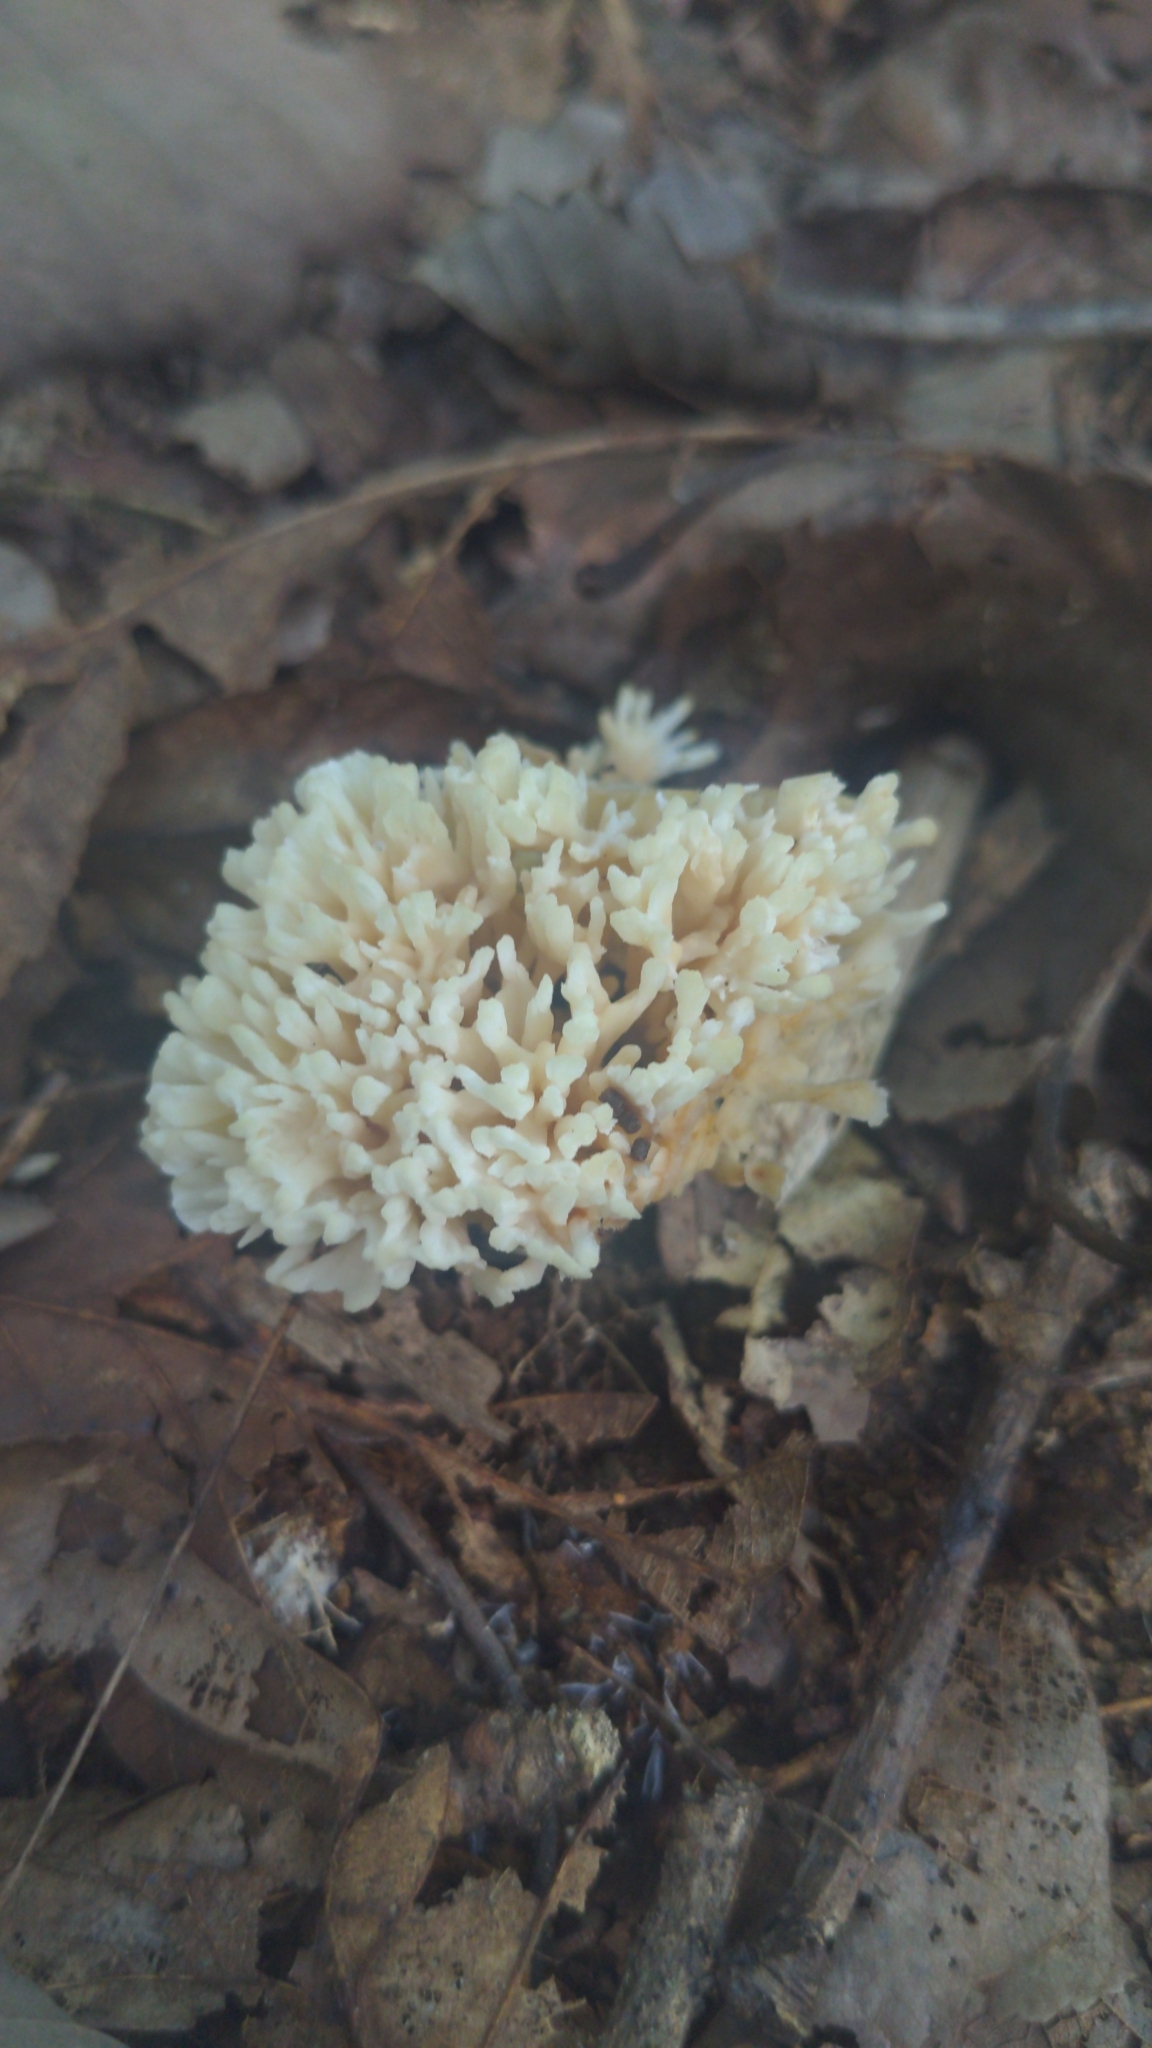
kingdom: Fungi
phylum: Basidiomycota
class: Agaricomycetes
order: Sebacinales
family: Sebacinaceae
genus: Sebacina
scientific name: Sebacina schweinitzii
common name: Jellied false coral fungus
